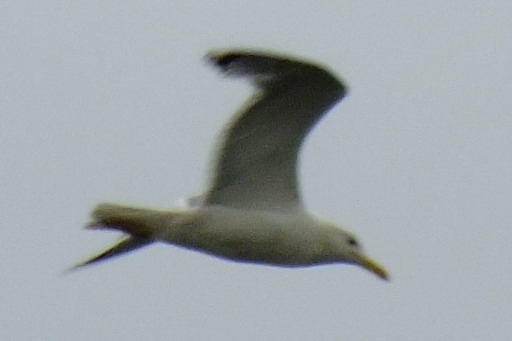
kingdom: Animalia
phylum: Chordata
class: Aves
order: Charadriiformes
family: Laridae
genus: Larus
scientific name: Larus cachinnans
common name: Caspian gull
